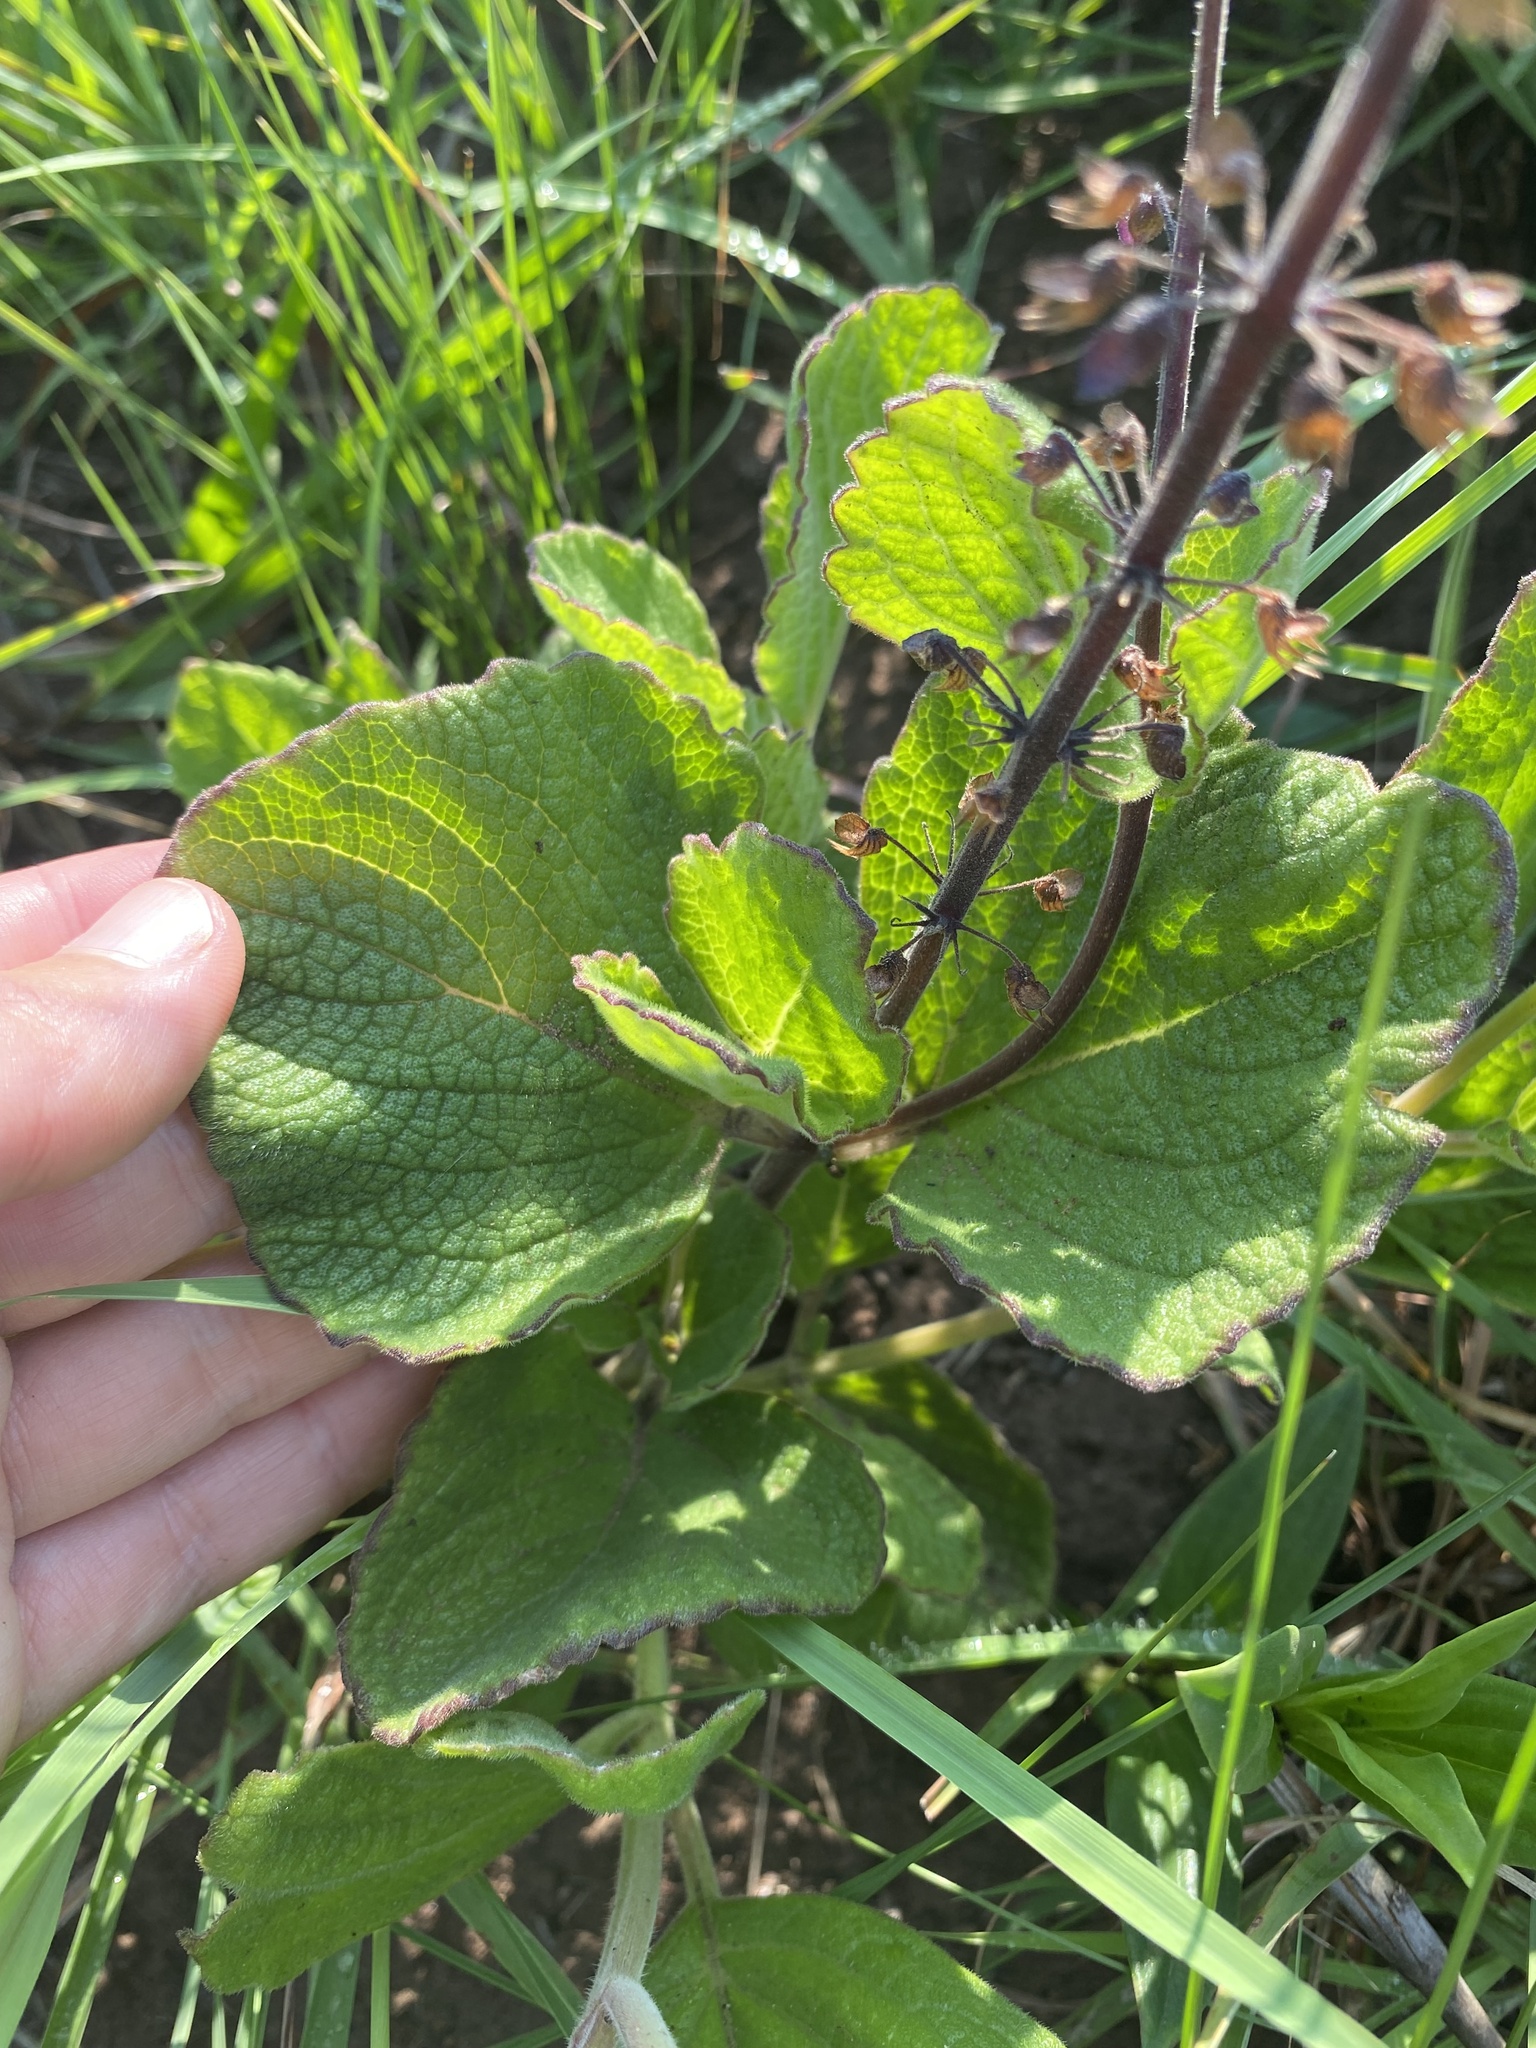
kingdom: Plantae
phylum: Tracheophyta
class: Magnoliopsida
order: Lamiales
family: Lamiaceae
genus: Coleus
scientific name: Coleus hadiensis
